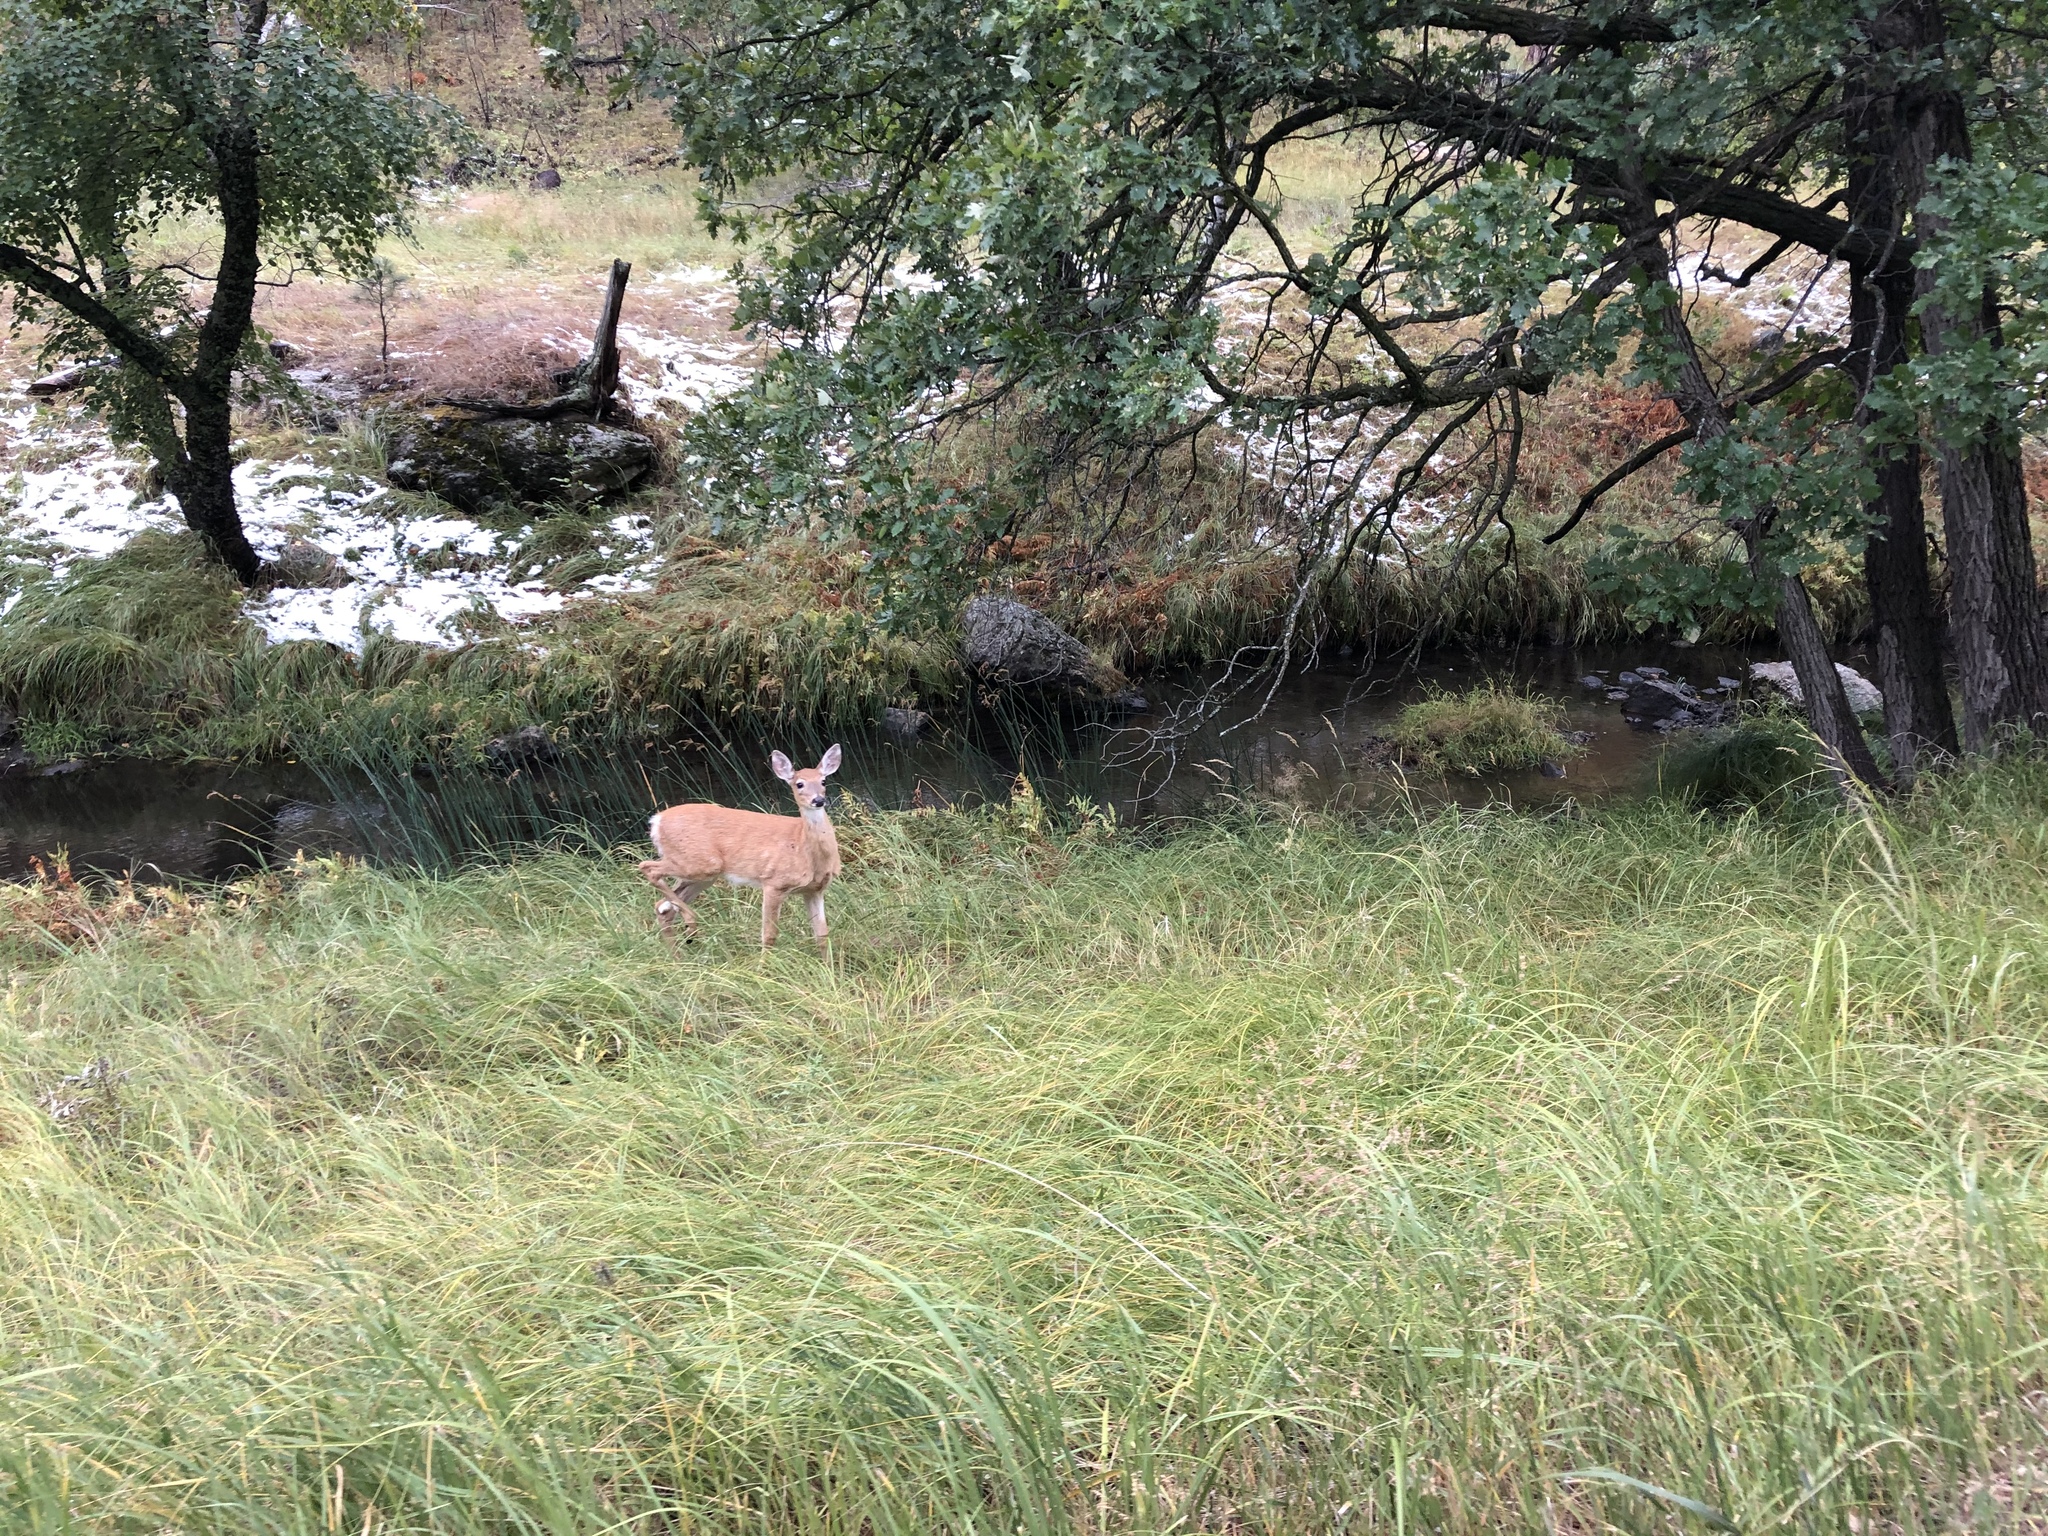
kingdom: Animalia
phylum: Chordata
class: Mammalia
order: Artiodactyla
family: Cervidae
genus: Odocoileus
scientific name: Odocoileus virginianus
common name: White-tailed deer
